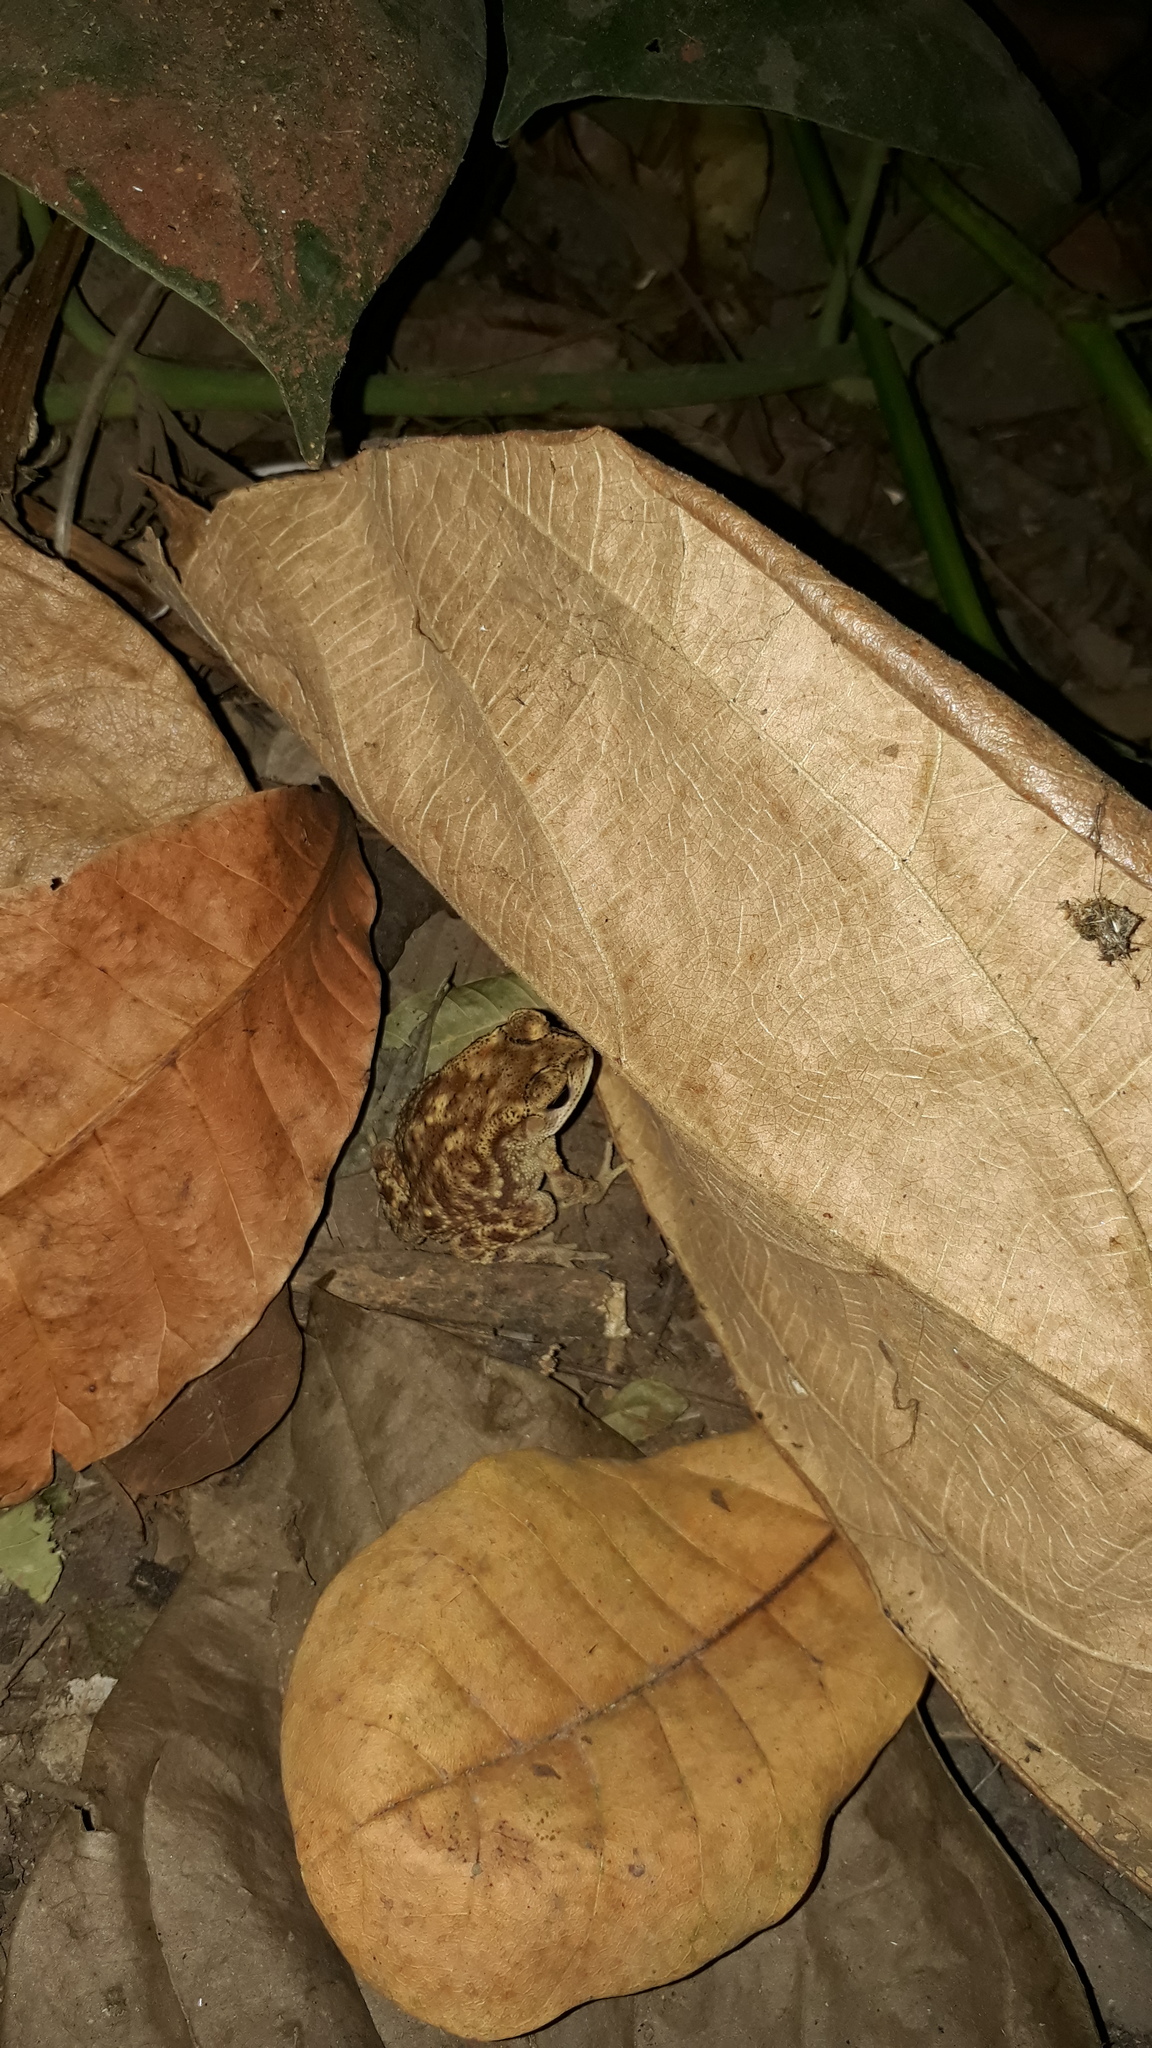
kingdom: Animalia
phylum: Chordata
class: Amphibia
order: Anura
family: Bufonidae
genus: Duttaphrynus
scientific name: Duttaphrynus melanostictus
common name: Common sunda toad
